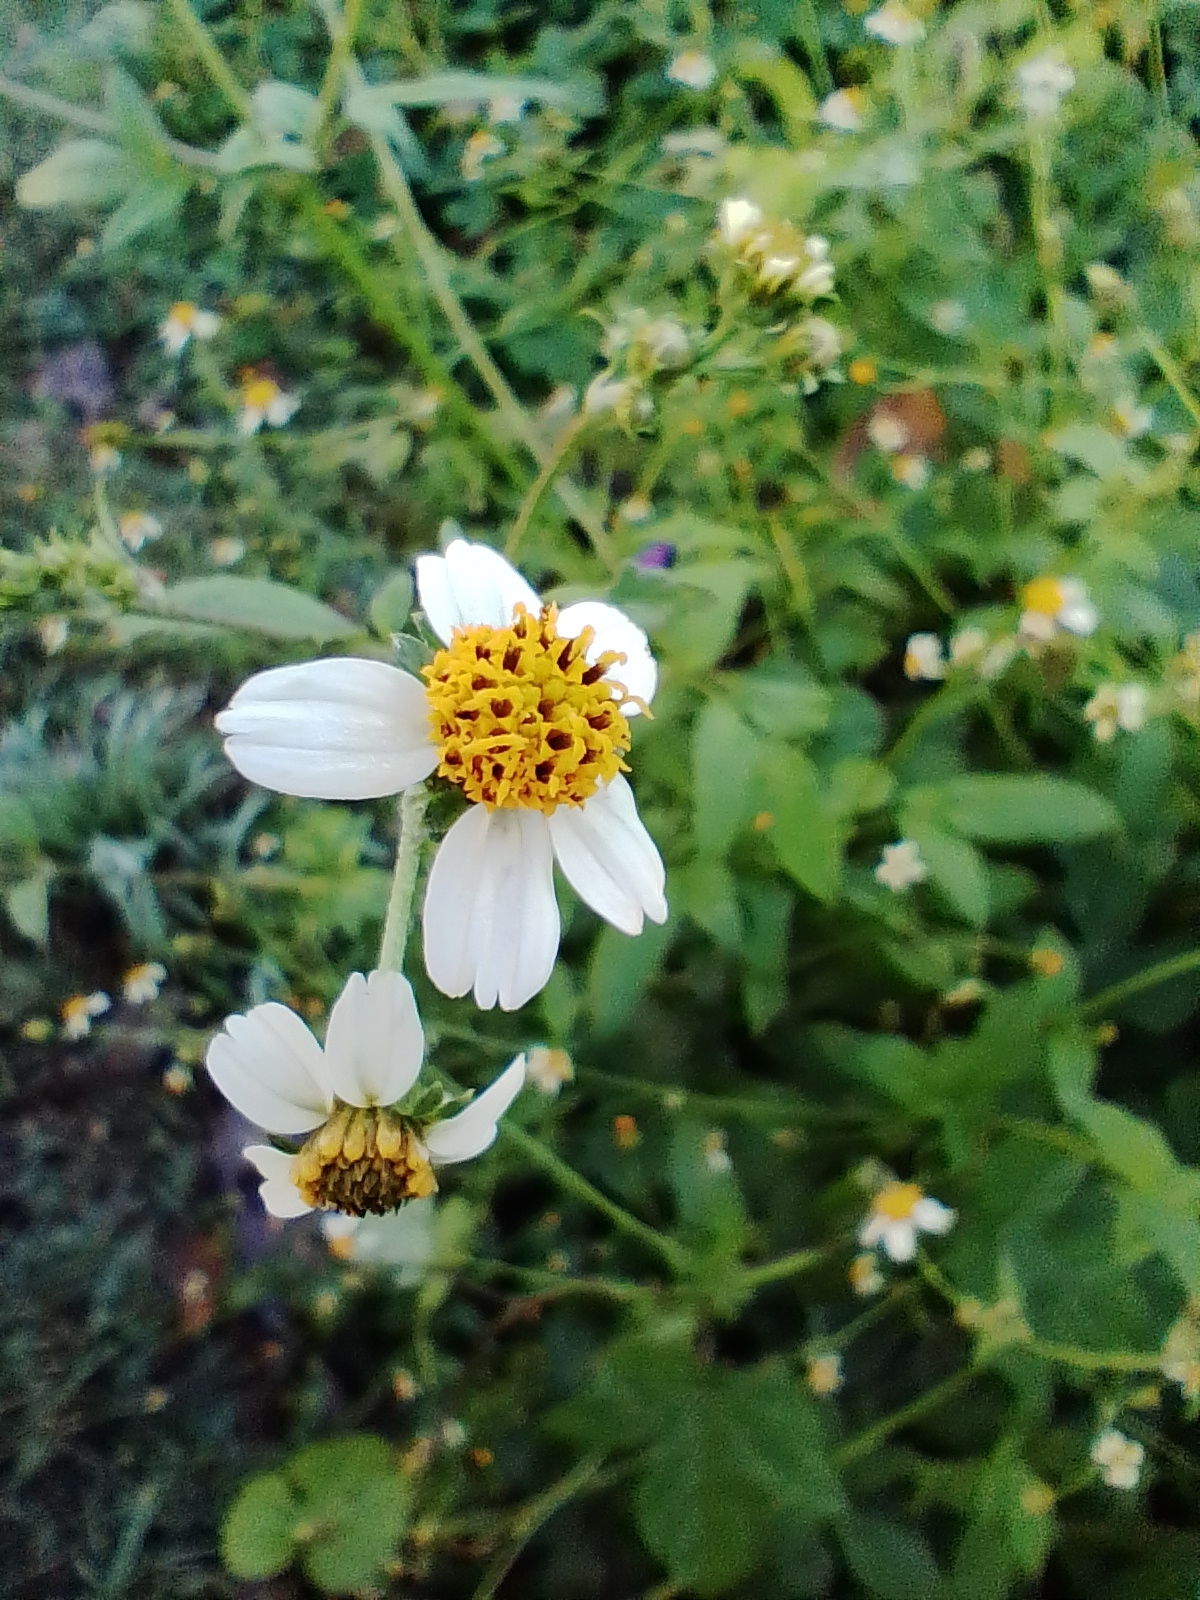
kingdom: Plantae
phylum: Tracheophyta
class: Magnoliopsida
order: Asterales
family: Asteraceae
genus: Bidens
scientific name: Bidens pilosa
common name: Black-jack
